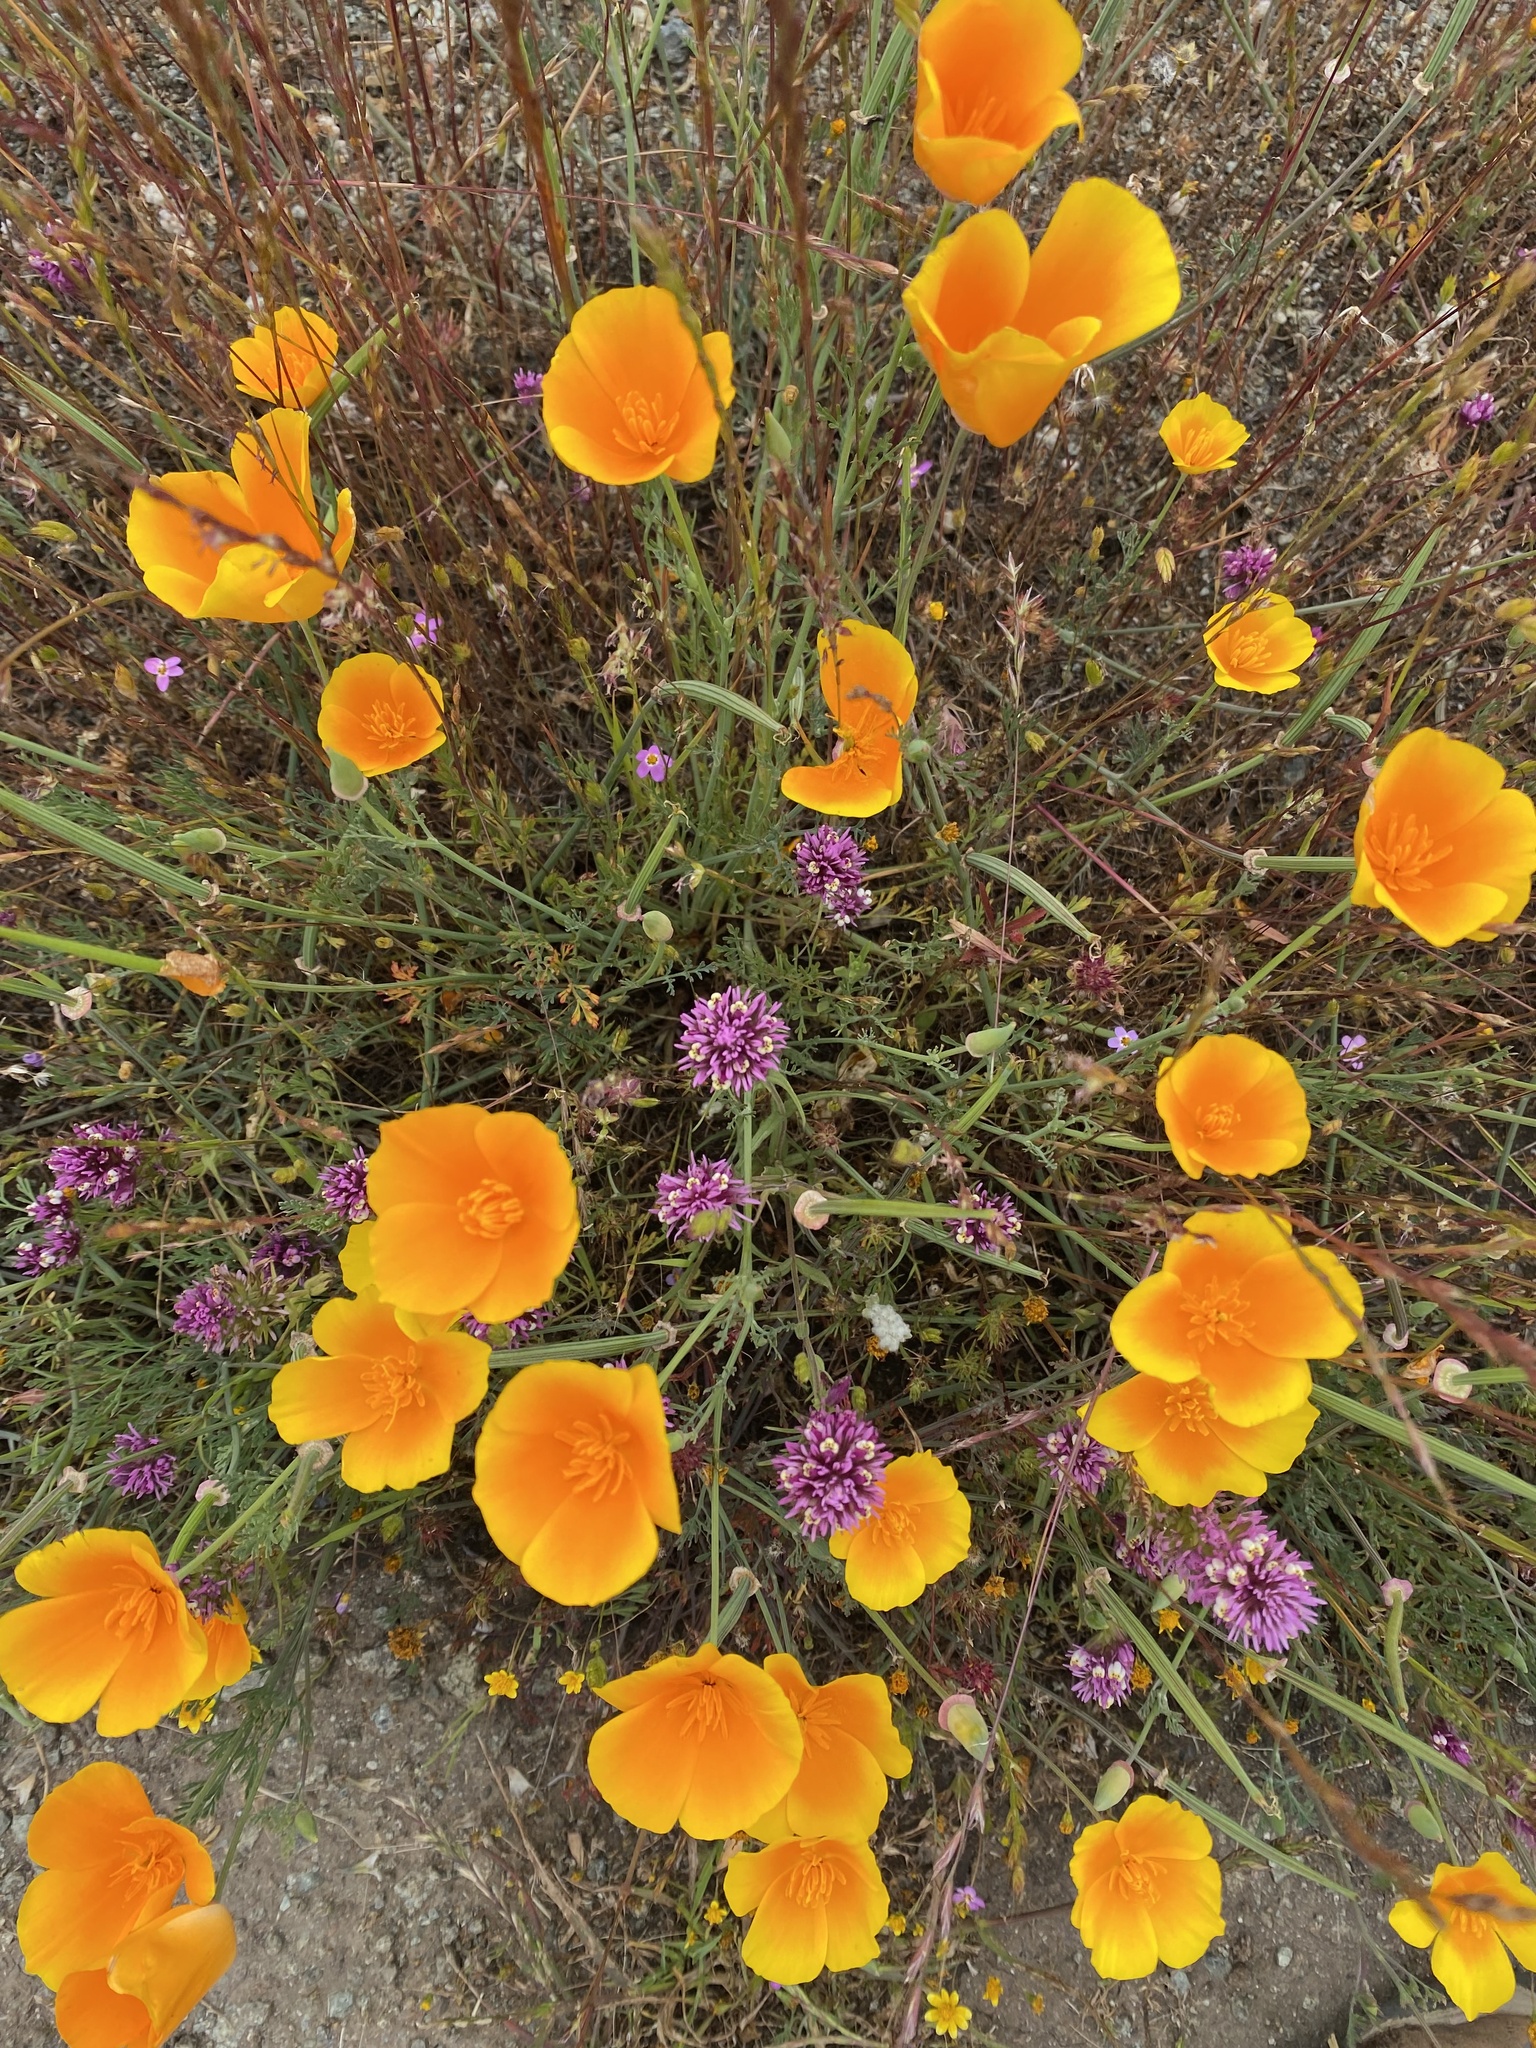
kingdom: Plantae
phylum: Tracheophyta
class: Magnoliopsida
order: Ranunculales
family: Papaveraceae
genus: Eschscholzia
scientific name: Eschscholzia californica
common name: California poppy
